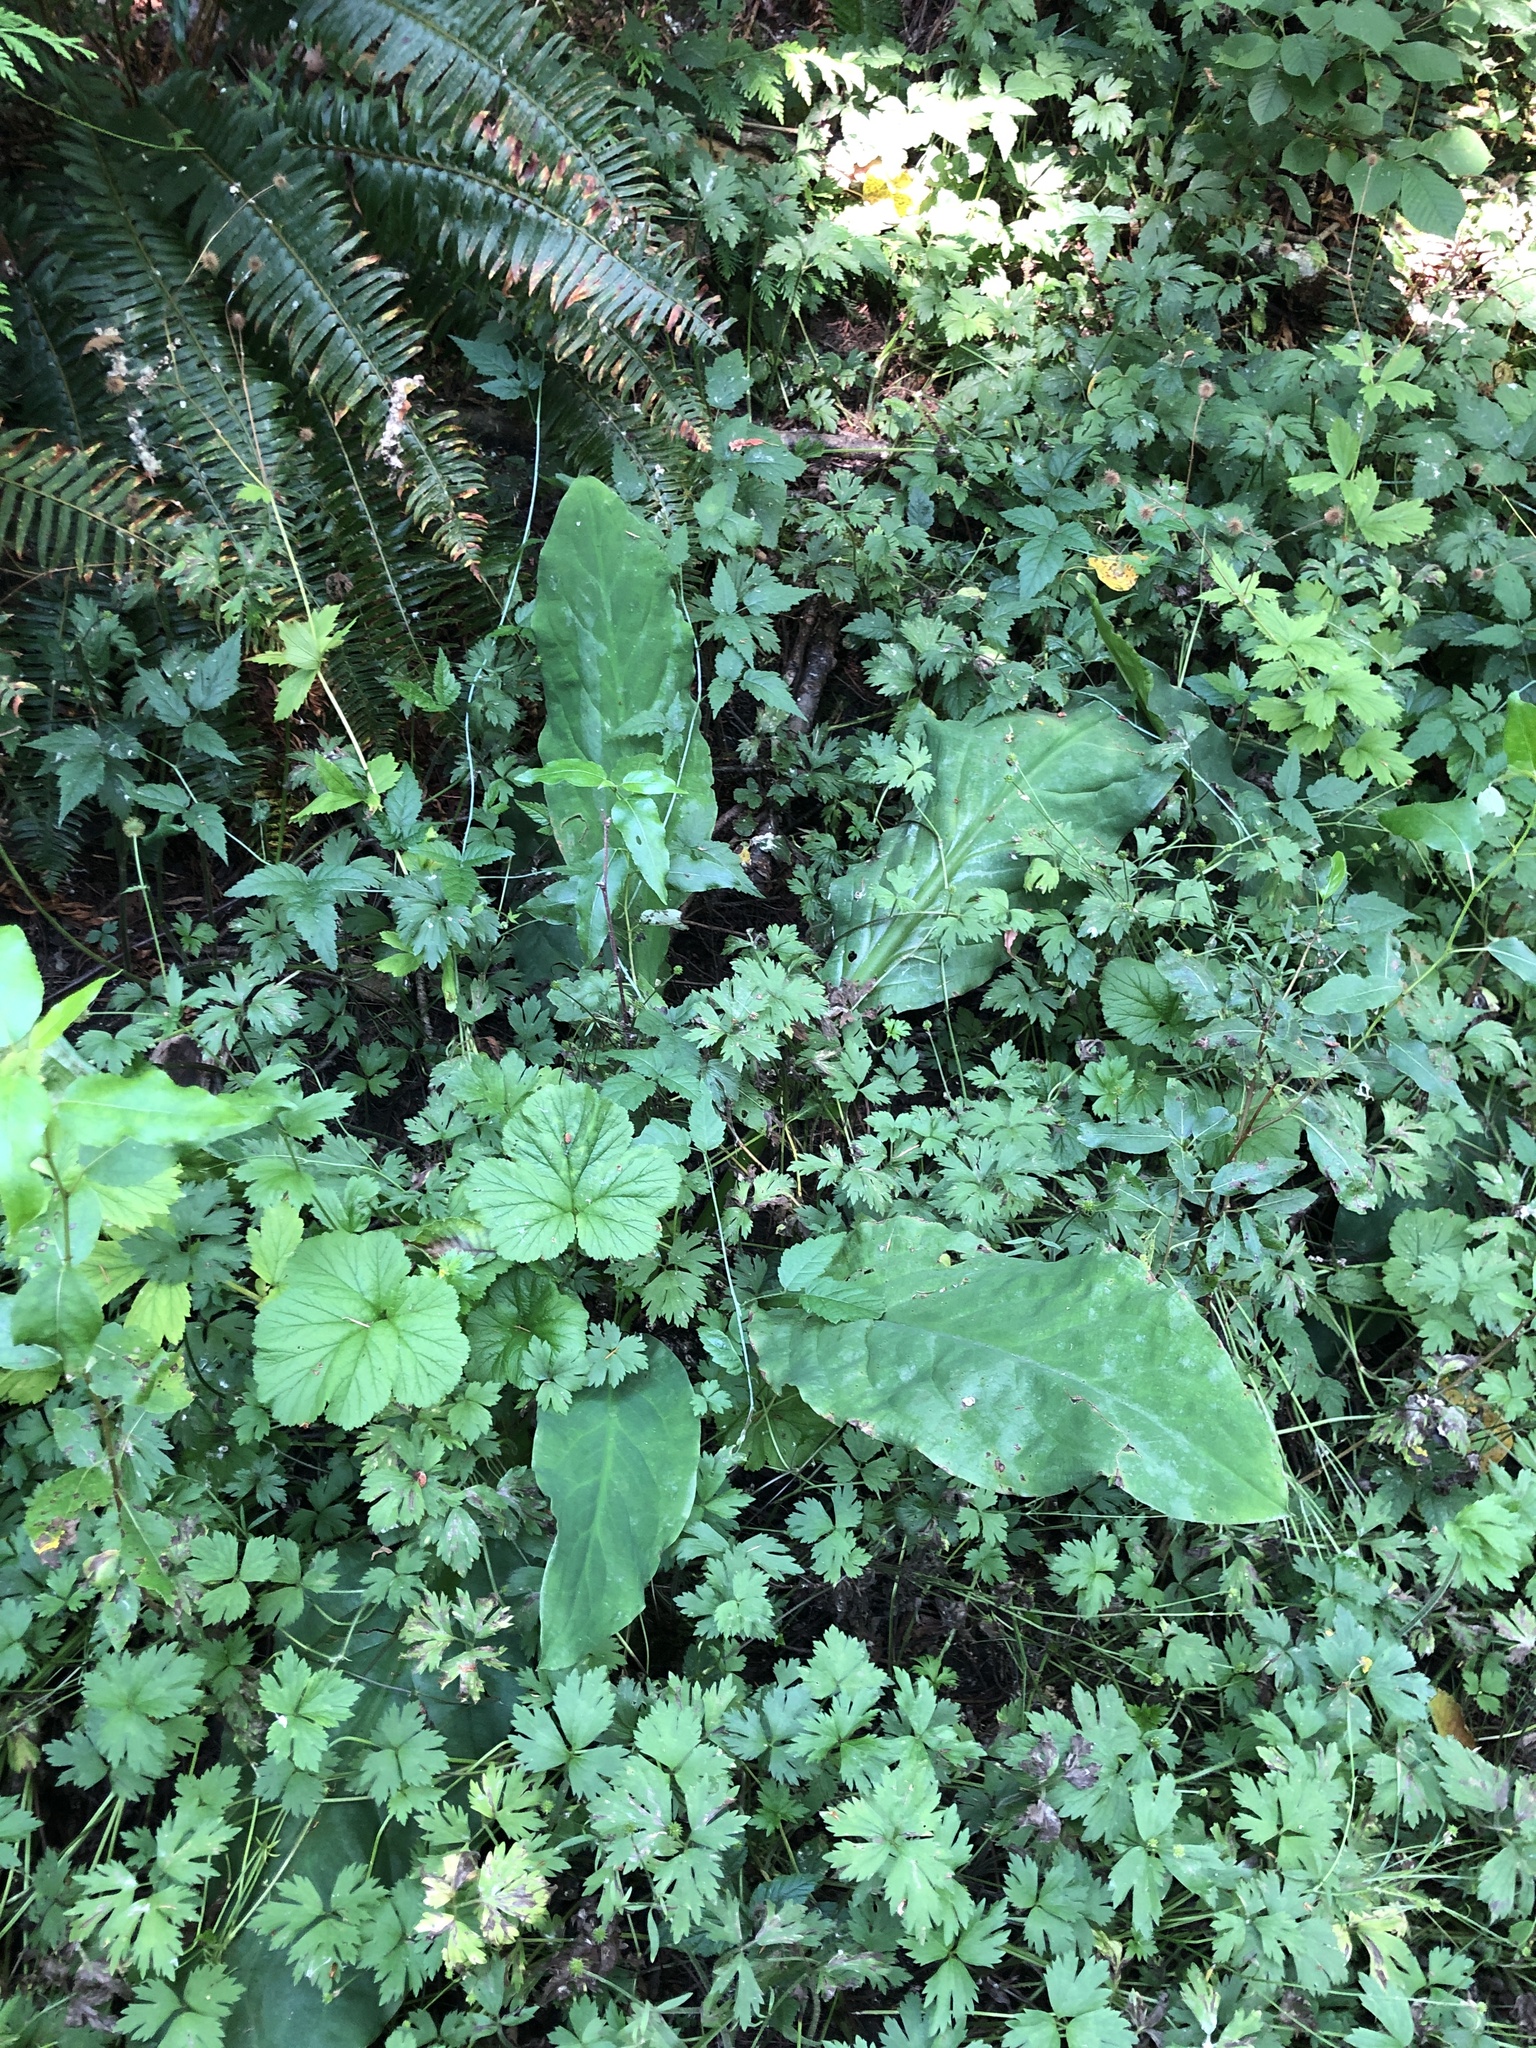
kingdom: Plantae
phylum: Tracheophyta
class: Liliopsida
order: Alismatales
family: Araceae
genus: Lysichiton
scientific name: Lysichiton americanus
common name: American skunk cabbage
